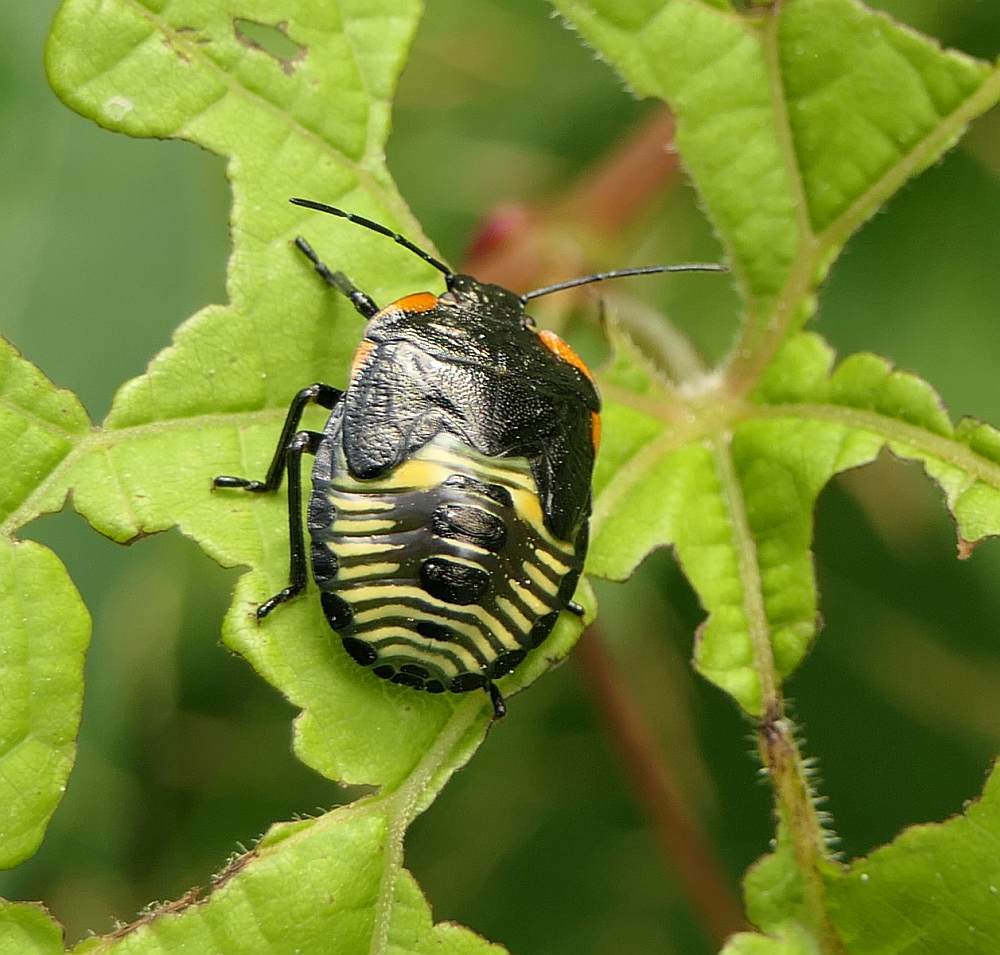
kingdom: Animalia
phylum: Arthropoda
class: Insecta
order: Hemiptera
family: Pentatomidae
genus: Chinavia
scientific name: Chinavia hilaris
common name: Green stink bug
